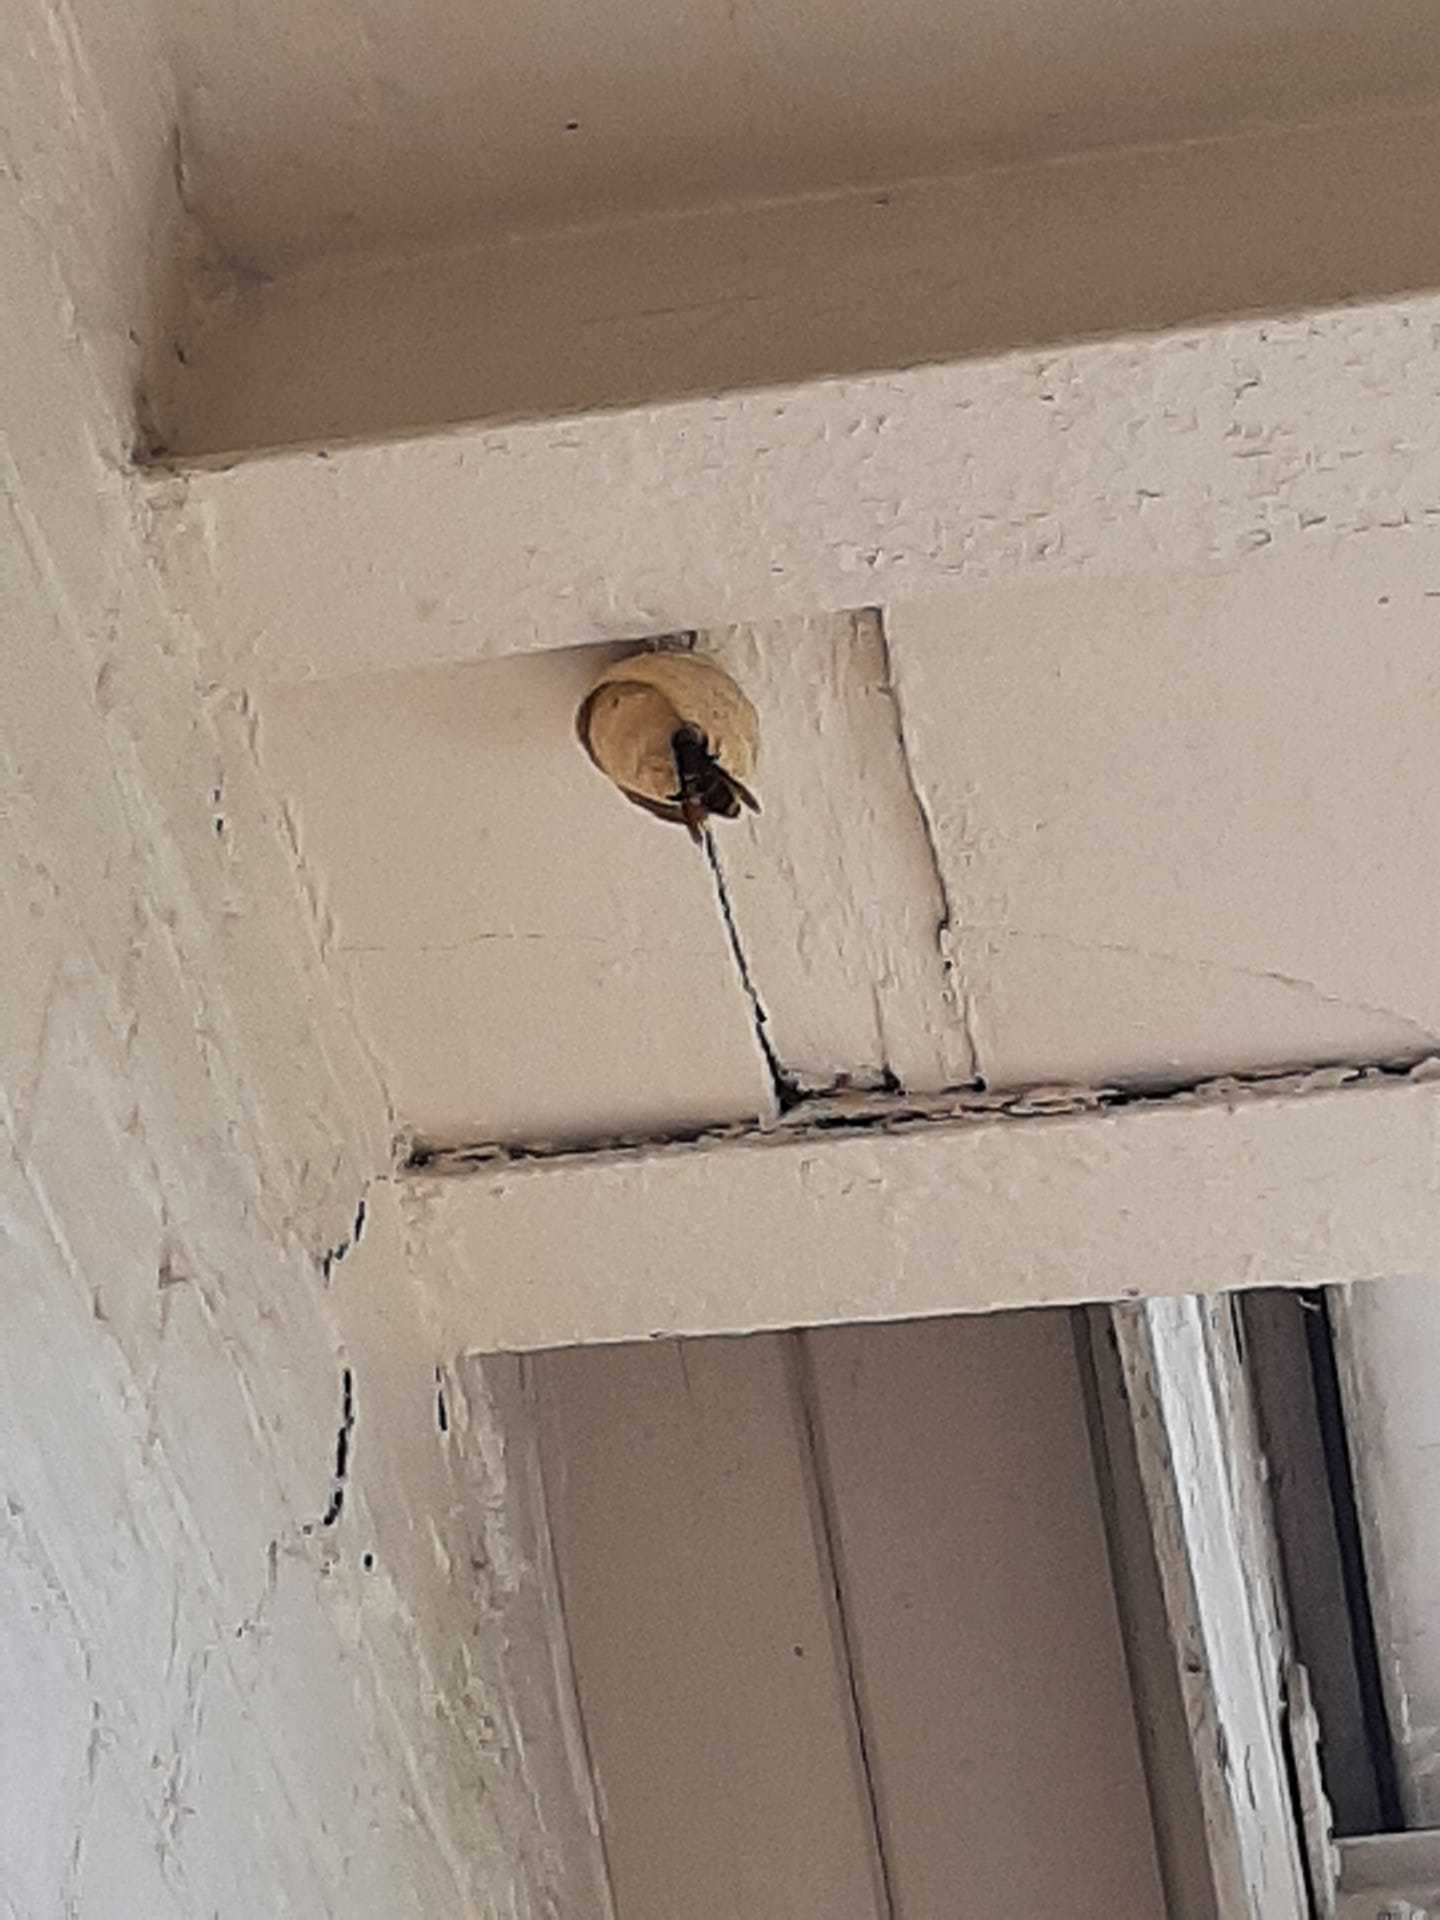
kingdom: Animalia
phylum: Arthropoda
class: Insecta
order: Hymenoptera
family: Vespidae
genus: Vespa
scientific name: Vespa velutina
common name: Asian hornet
